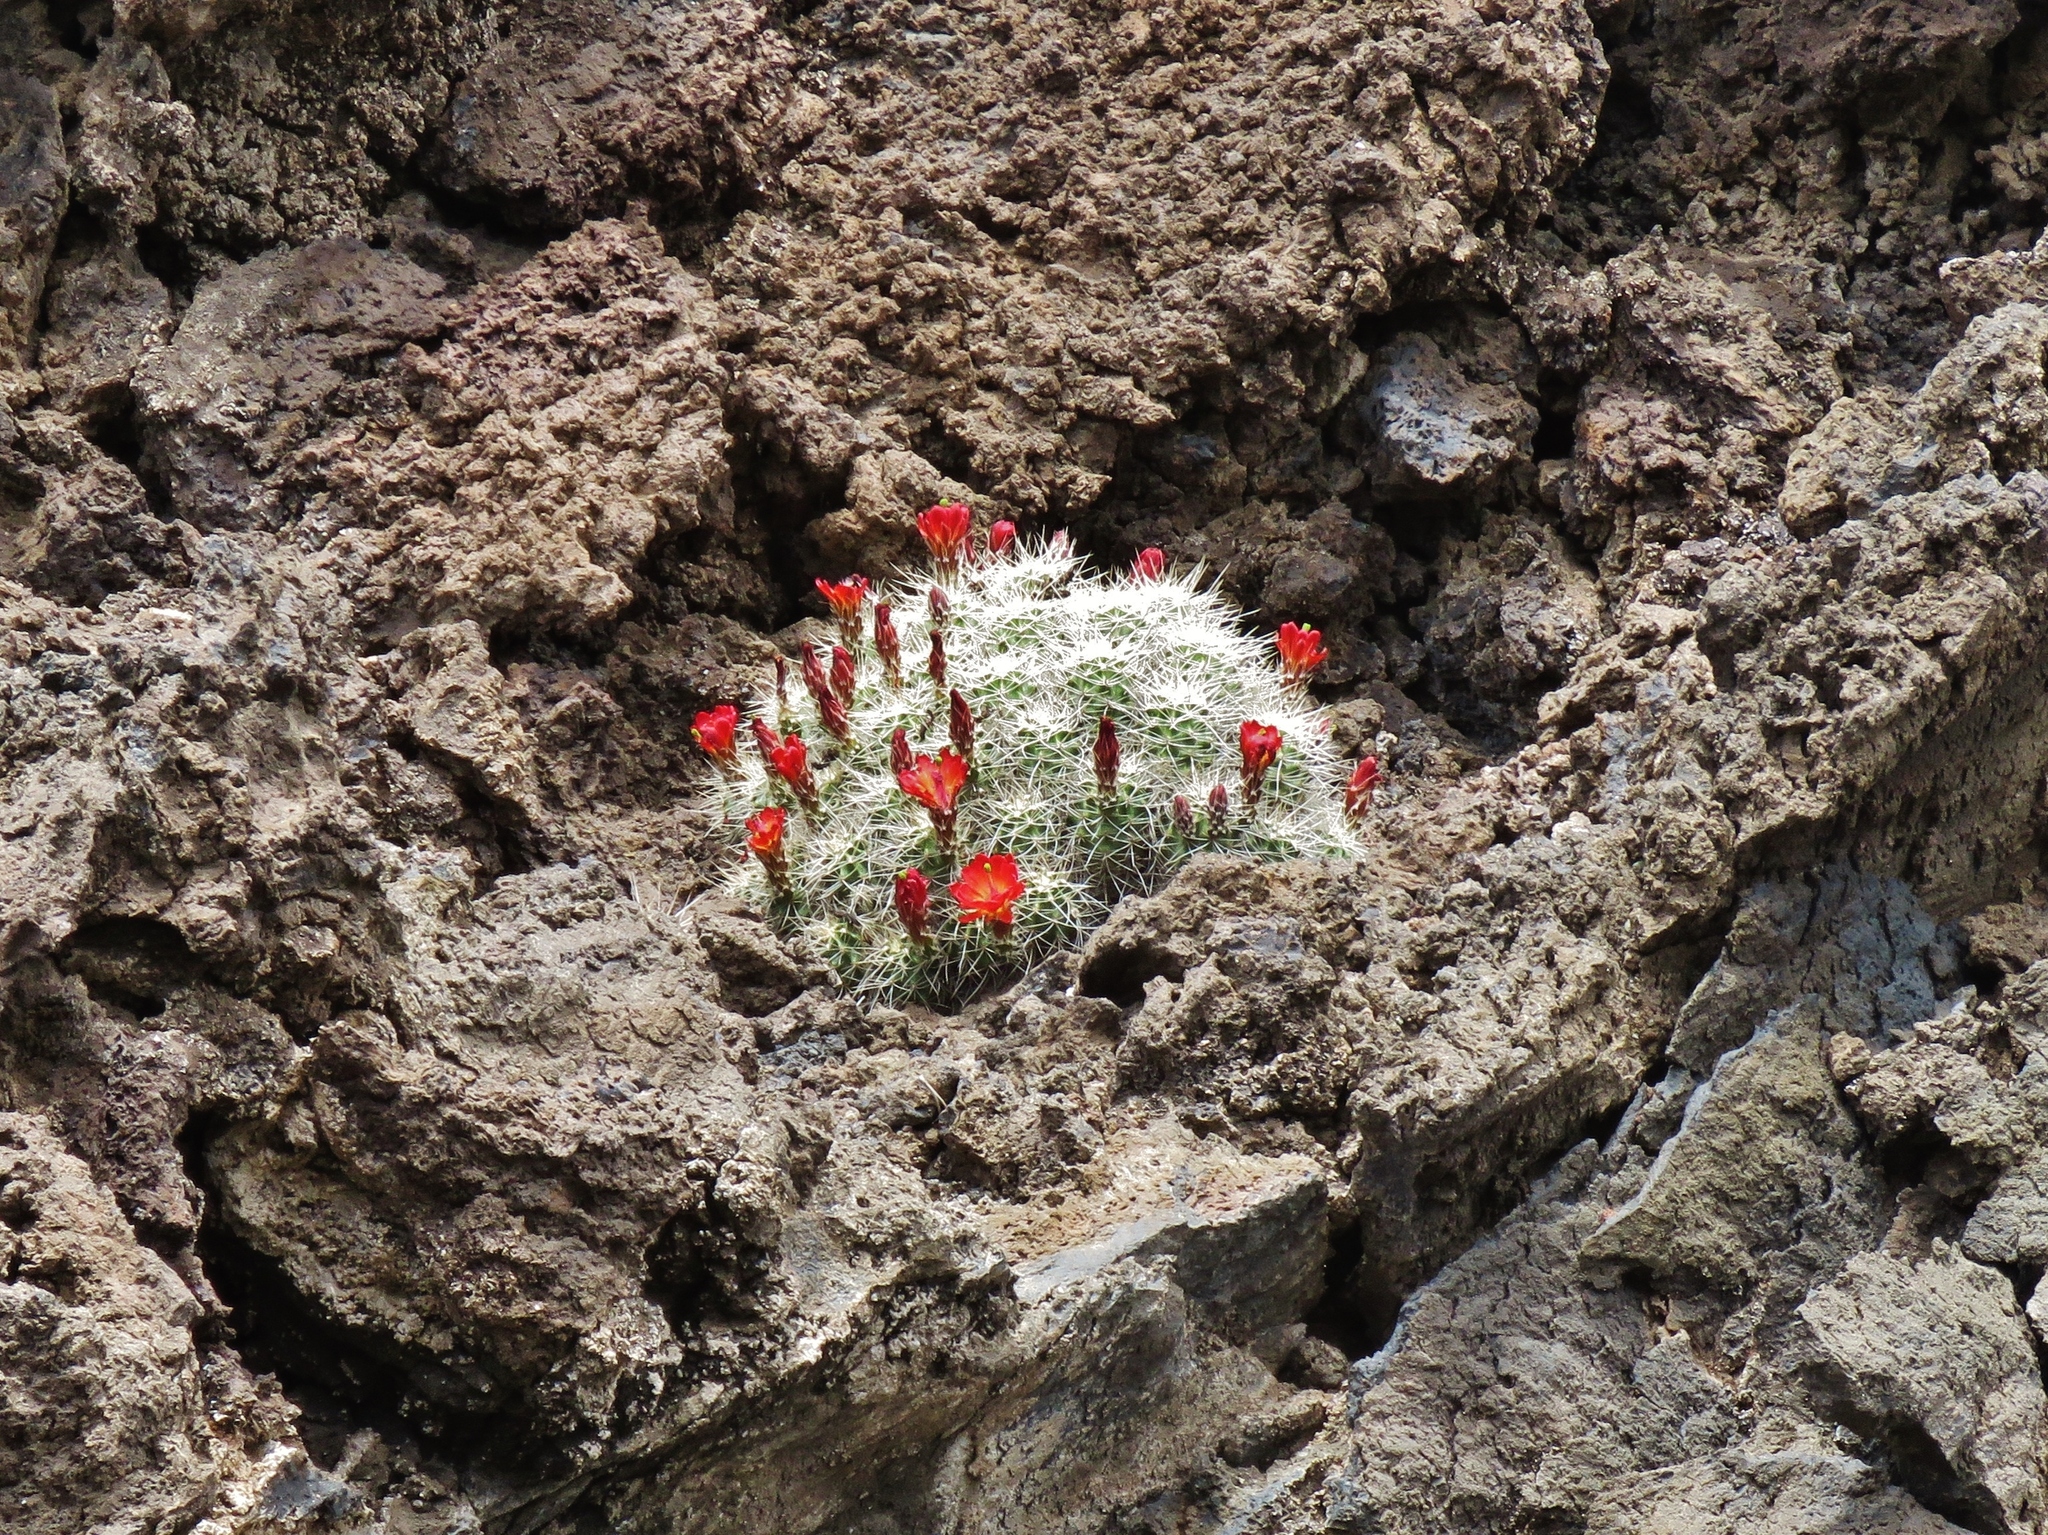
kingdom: Plantae
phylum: Tracheophyta
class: Magnoliopsida
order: Caryophyllales
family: Cactaceae
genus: Echinocereus
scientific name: Echinocereus triglochidiatus
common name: Claretcup hedgehog
